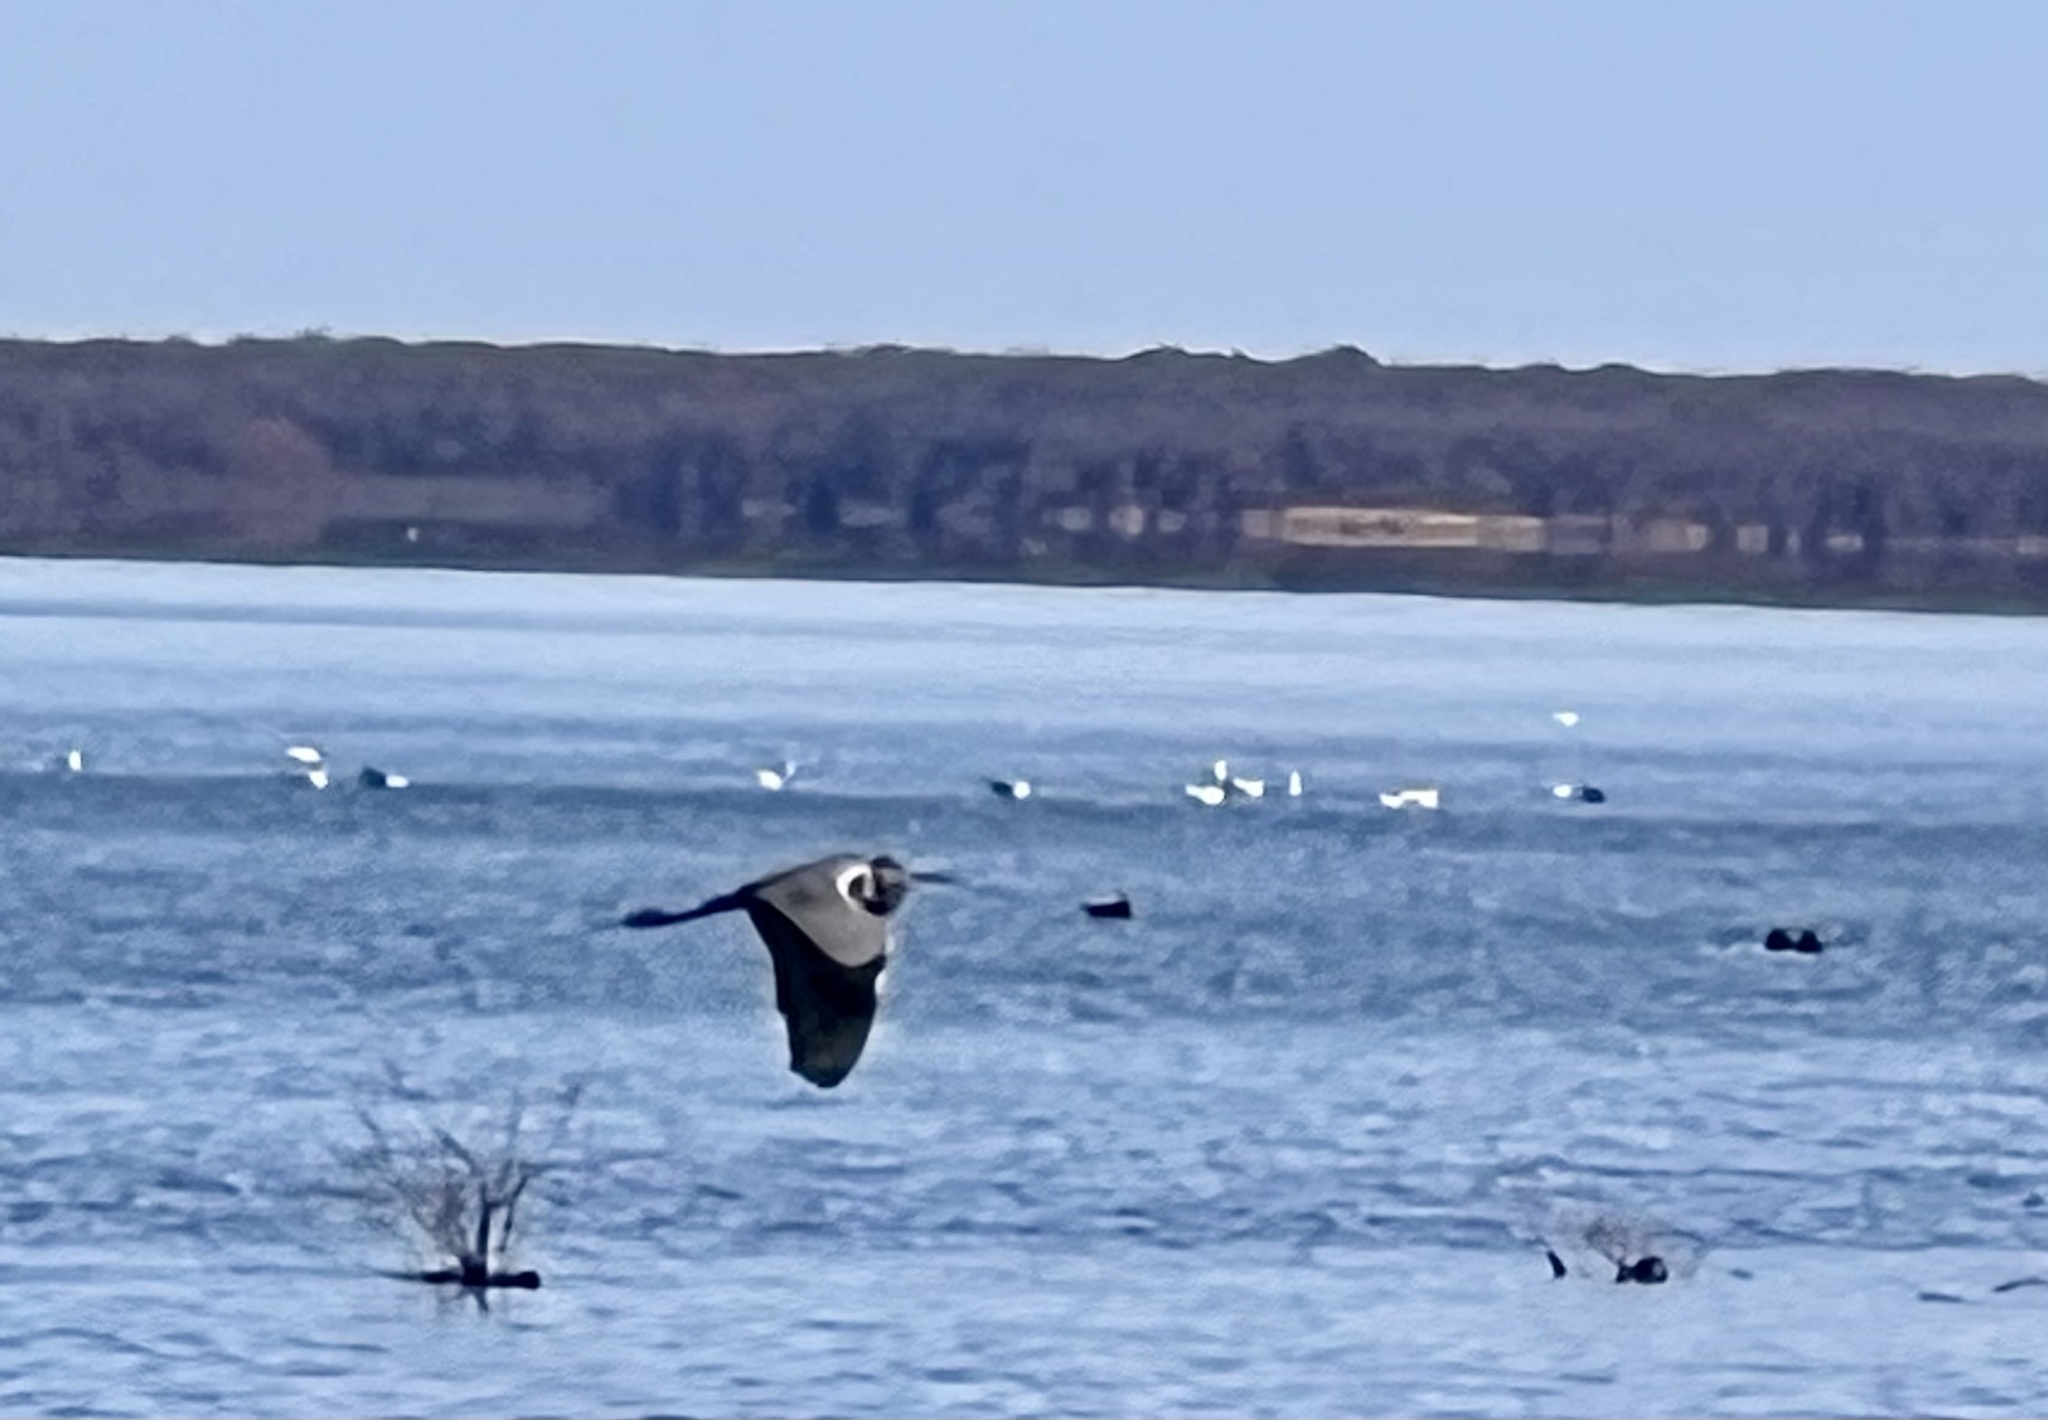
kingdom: Animalia
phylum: Chordata
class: Aves
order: Pelecaniformes
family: Ardeidae
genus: Ardea
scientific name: Ardea herodias
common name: Great blue heron
